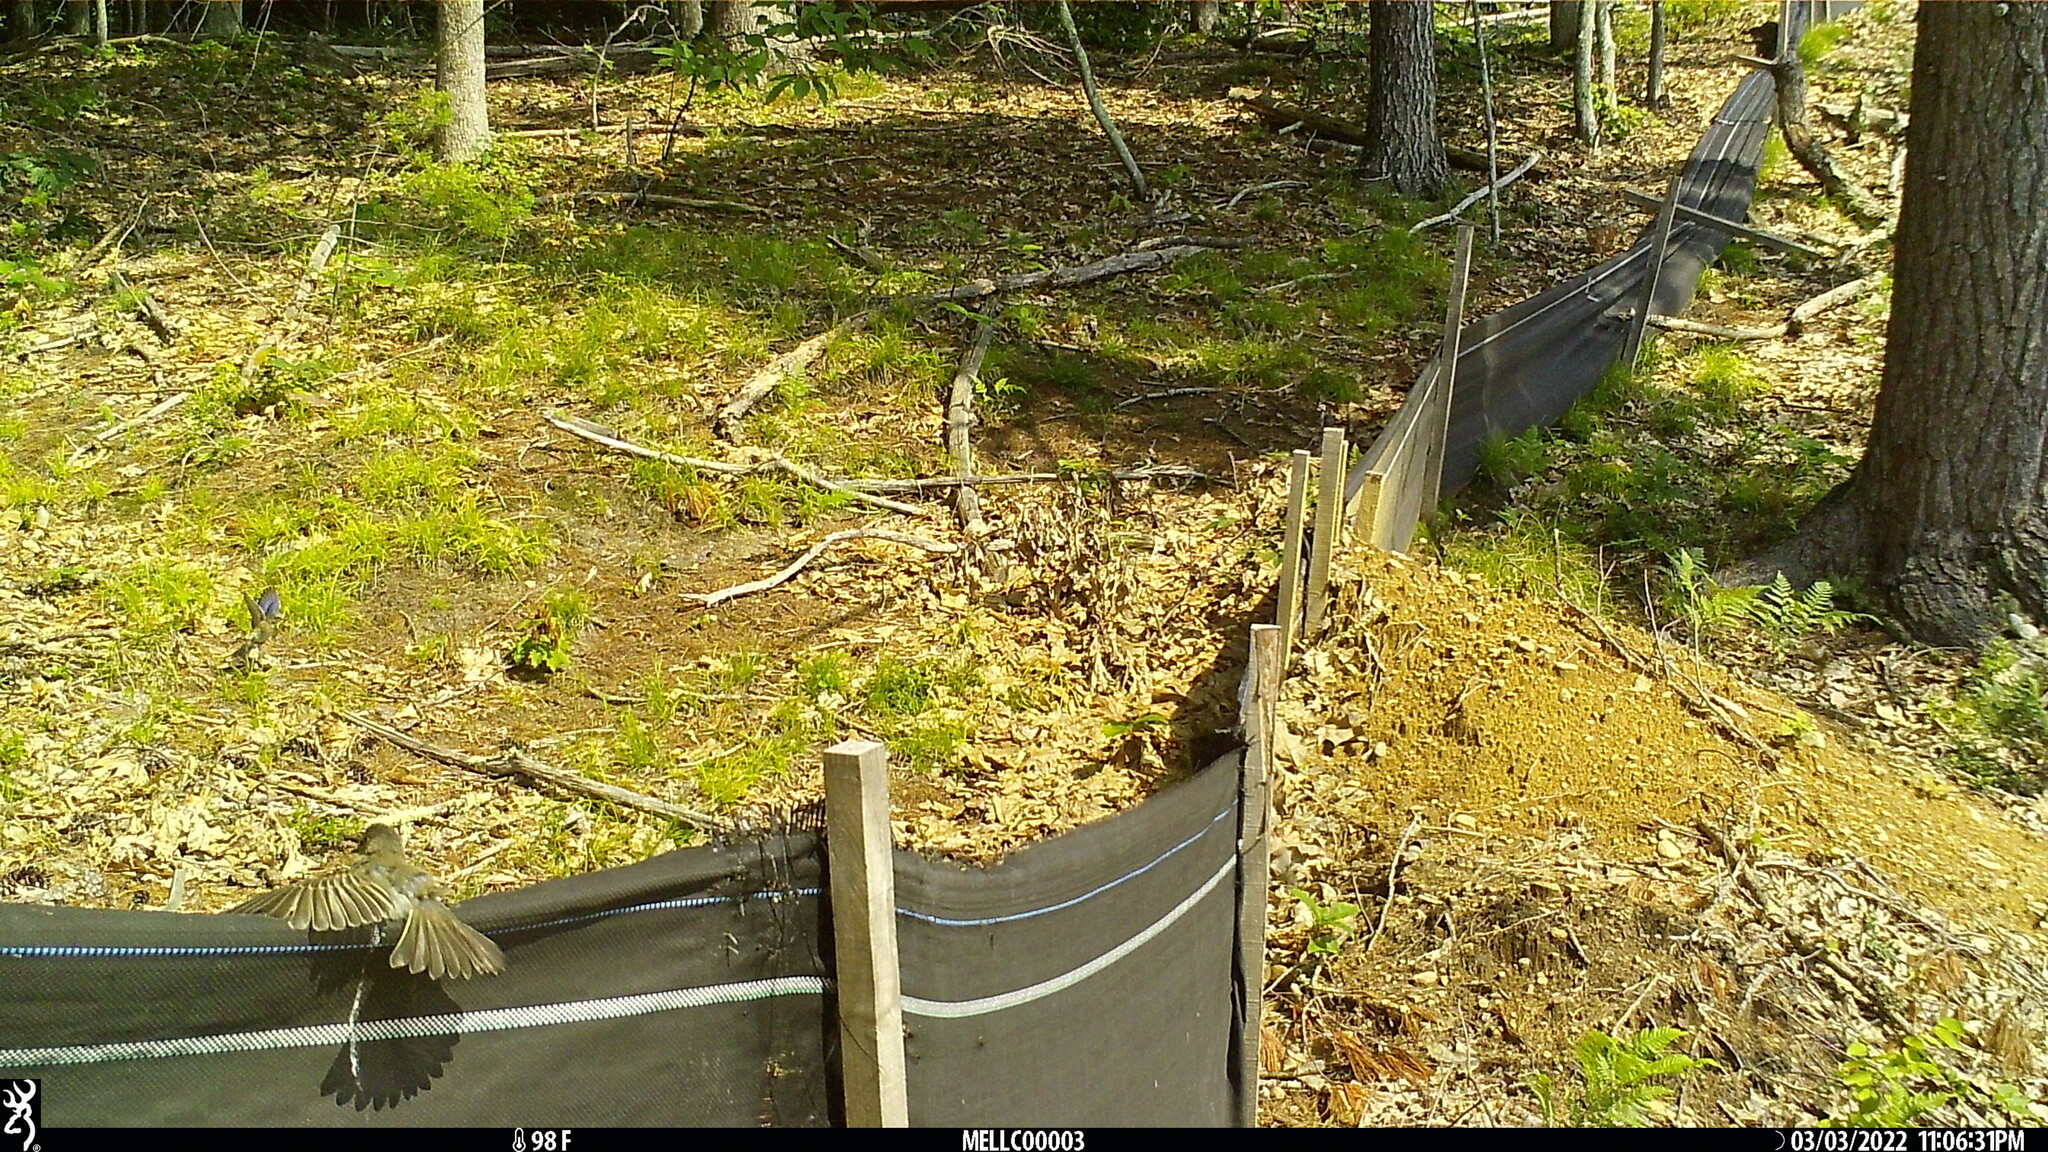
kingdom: Animalia
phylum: Chordata
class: Aves
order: Passeriformes
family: Turdidae
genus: Sialia
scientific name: Sialia sialis
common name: Eastern bluebird
